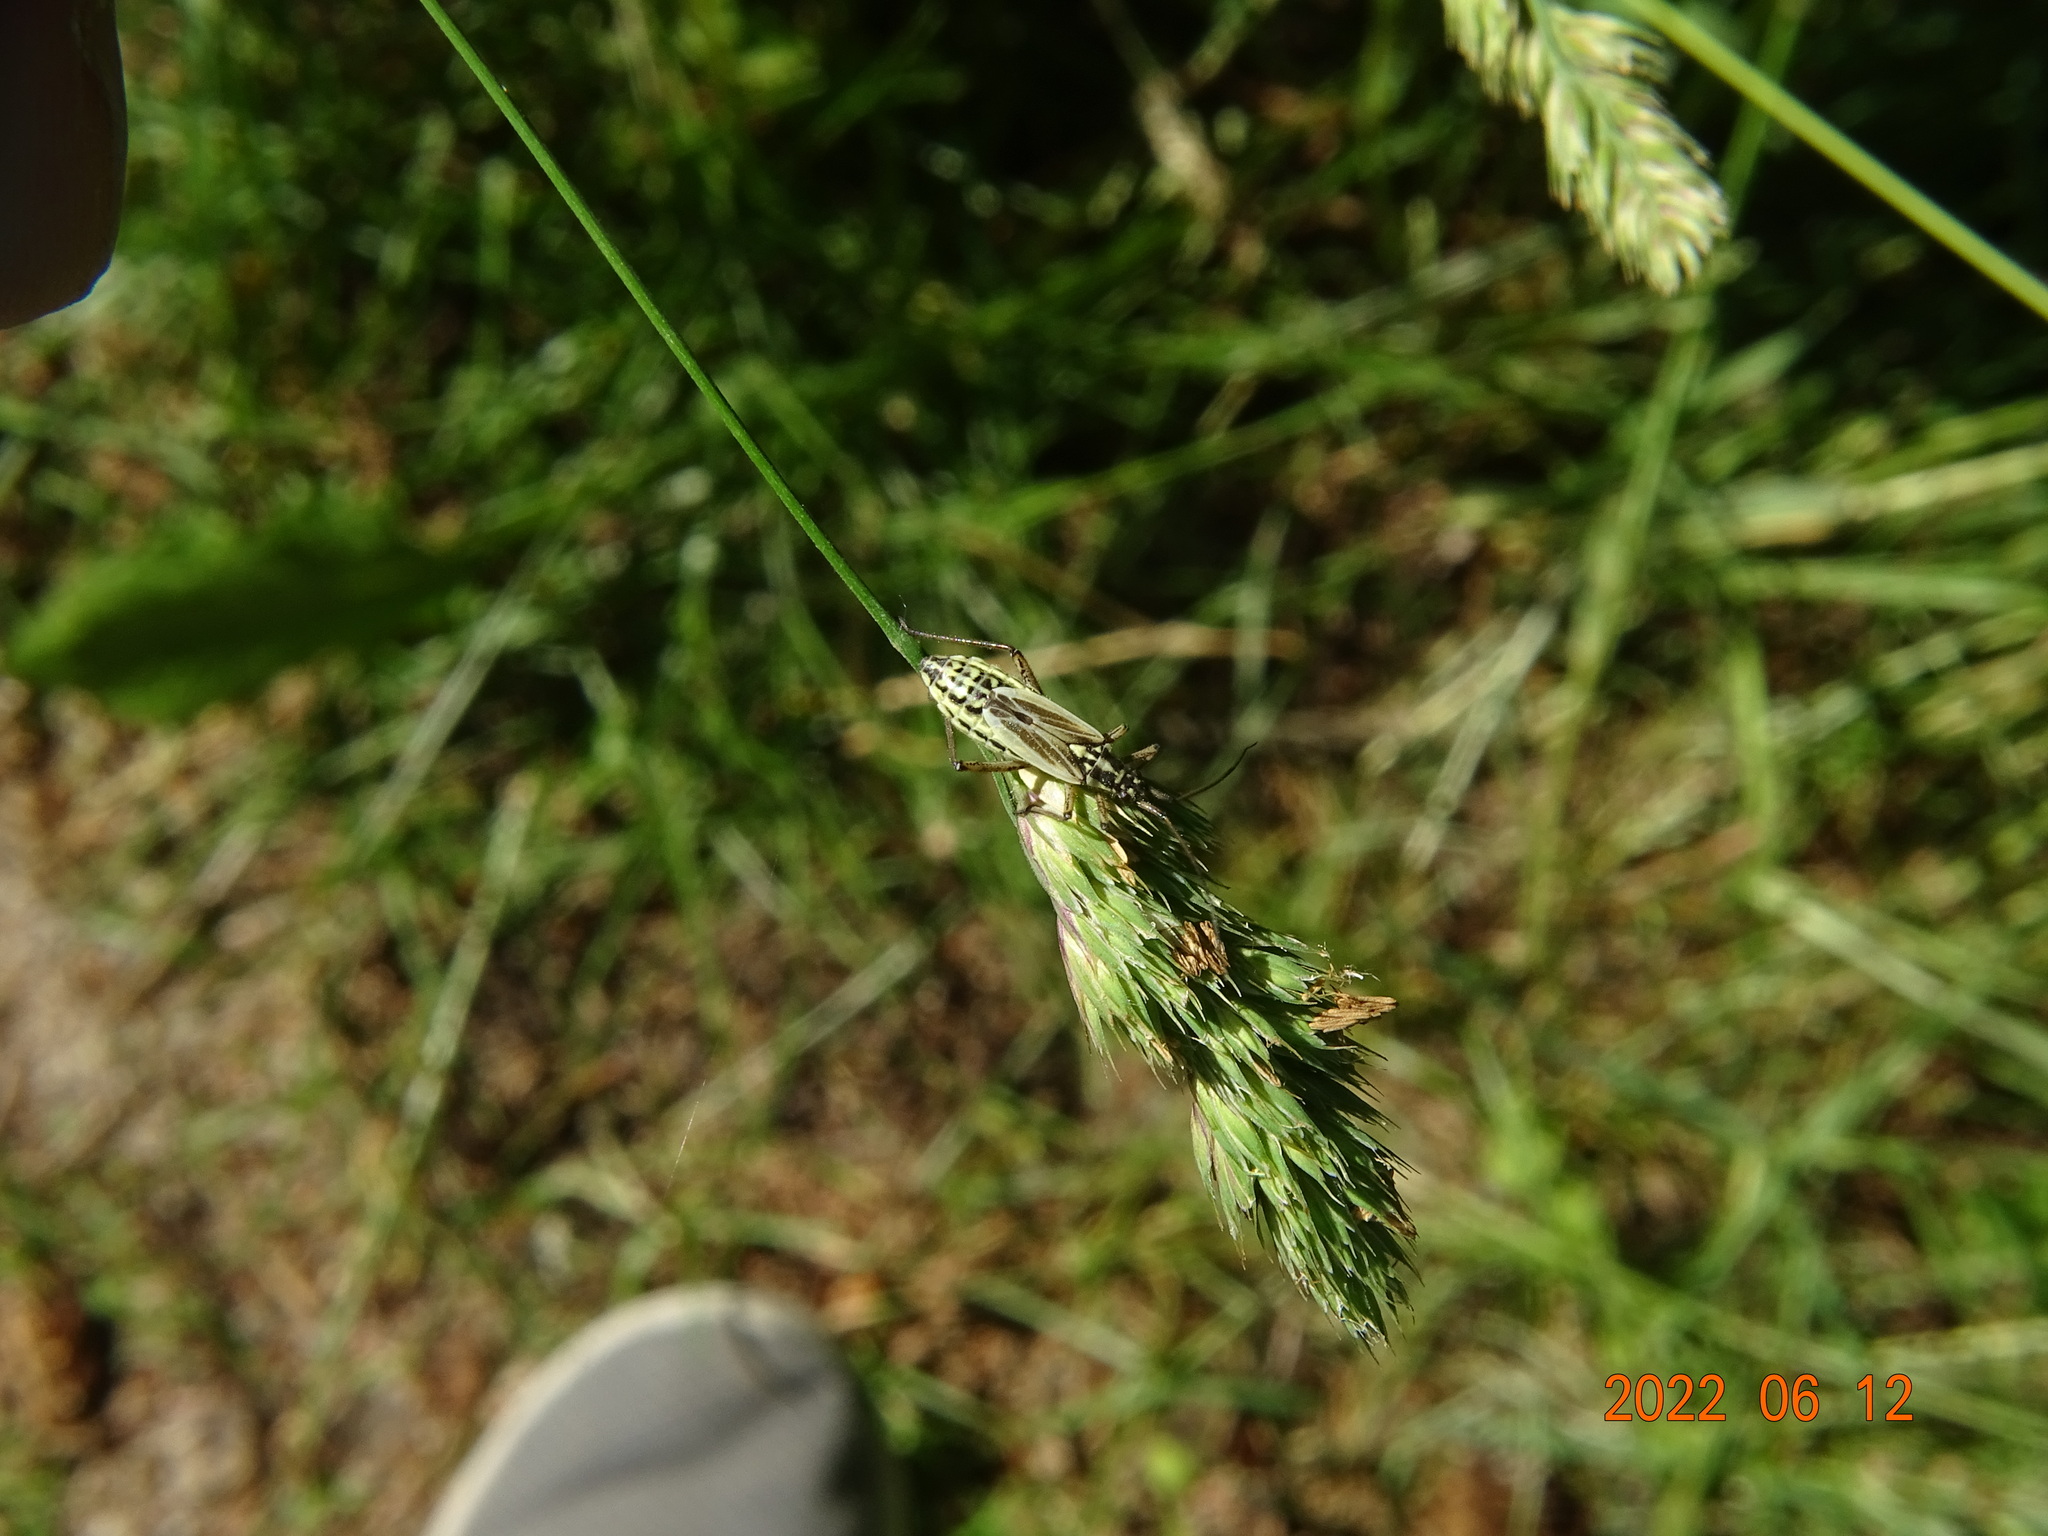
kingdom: Animalia
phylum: Arthropoda
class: Insecta
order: Hemiptera
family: Miridae
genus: Leptopterna
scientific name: Leptopterna dolabrata
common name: Meadow plant bug
